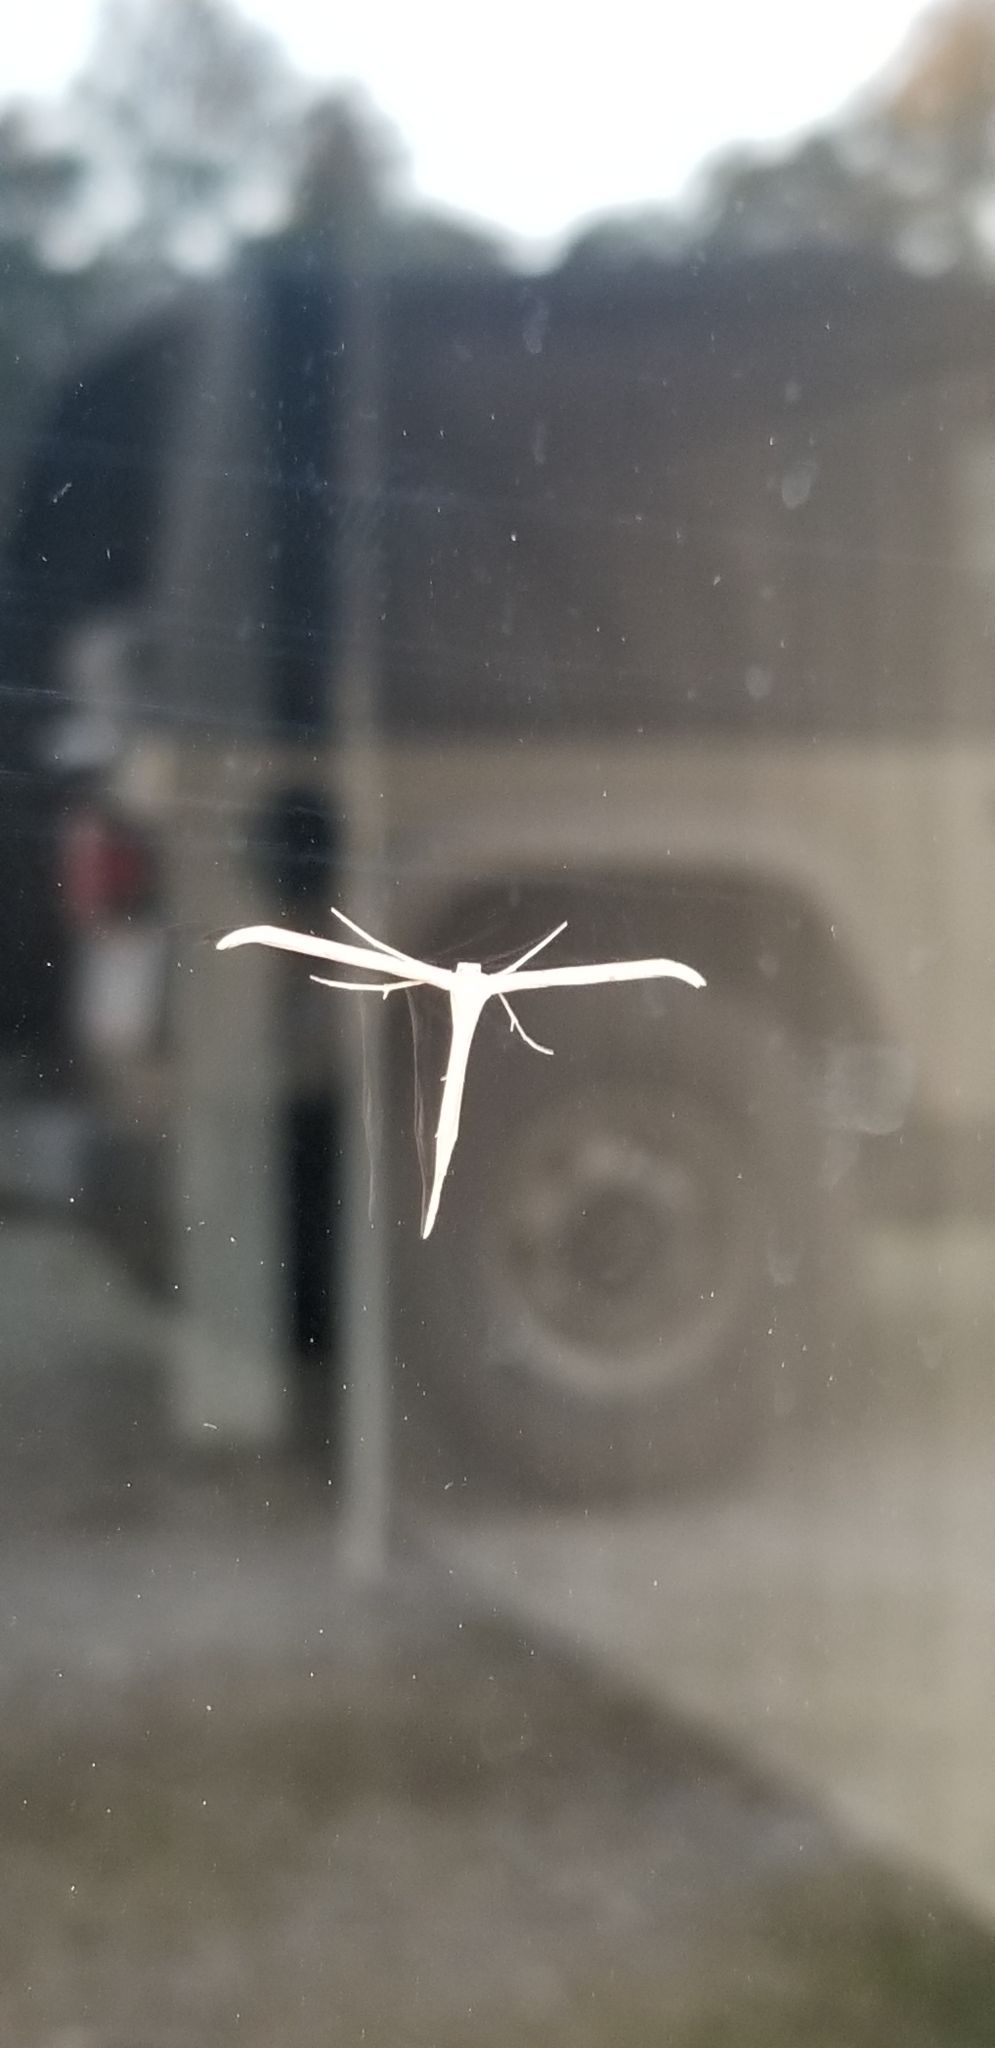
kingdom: Animalia
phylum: Arthropoda
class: Insecta
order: Lepidoptera
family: Pterophoridae
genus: Emmelina
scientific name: Emmelina monodactyla
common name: Common plume
